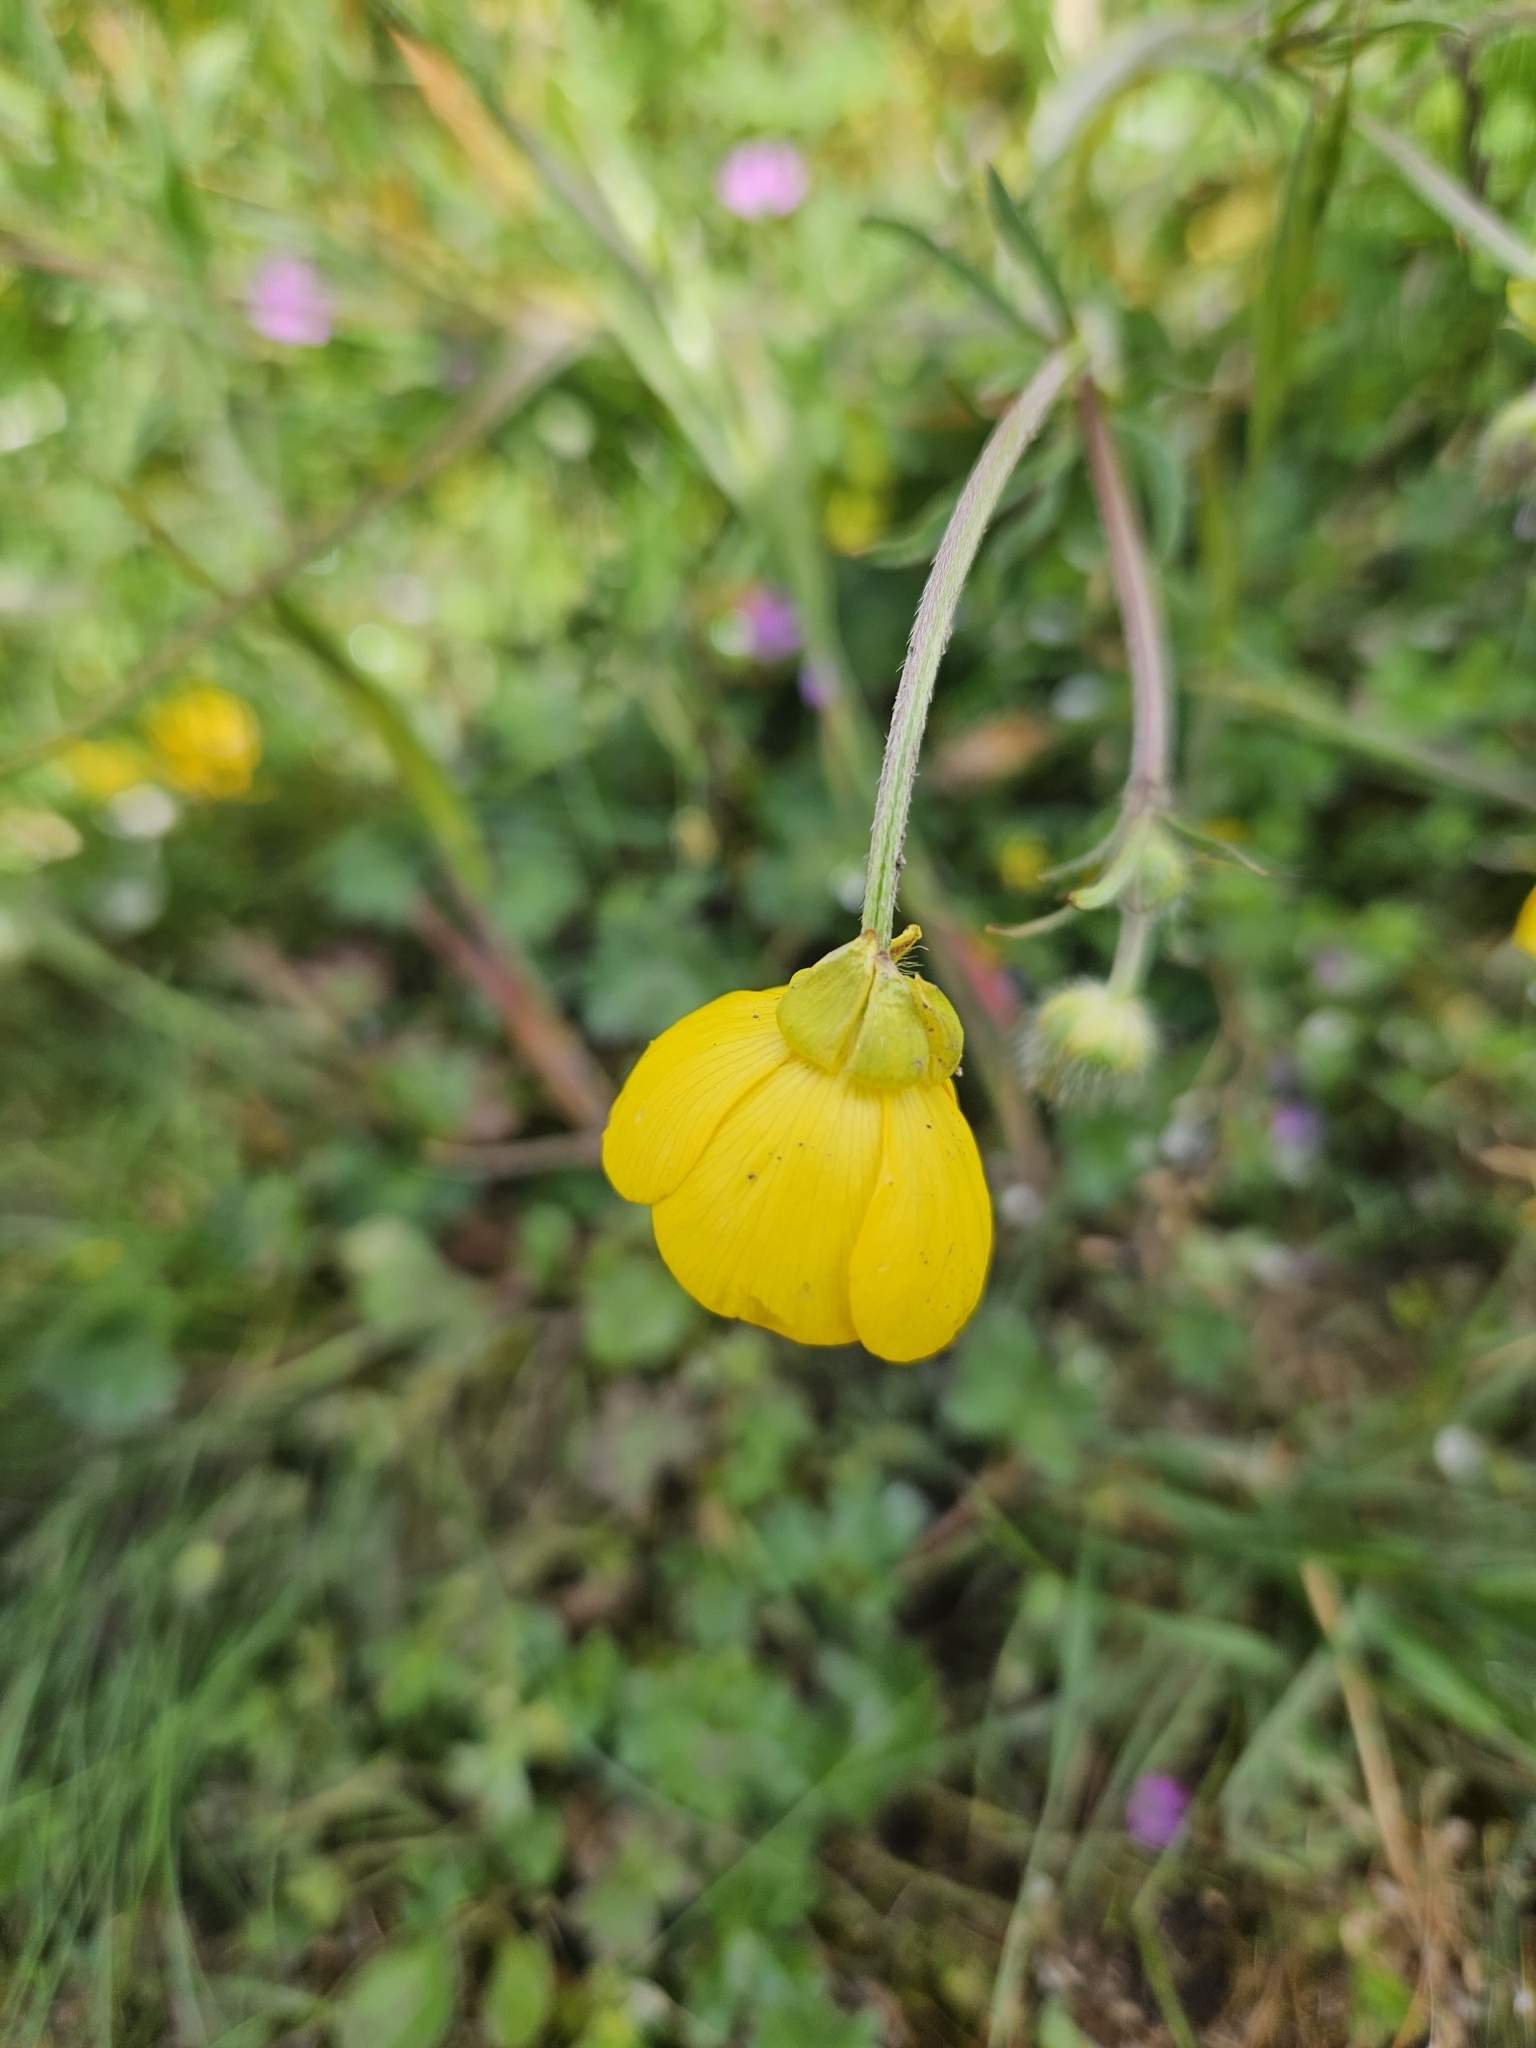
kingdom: Plantae
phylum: Tracheophyta
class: Magnoliopsida
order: Ranunculales
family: Ranunculaceae
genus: Ranunculus
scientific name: Ranunculus bulbosus
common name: Bulbous buttercup
